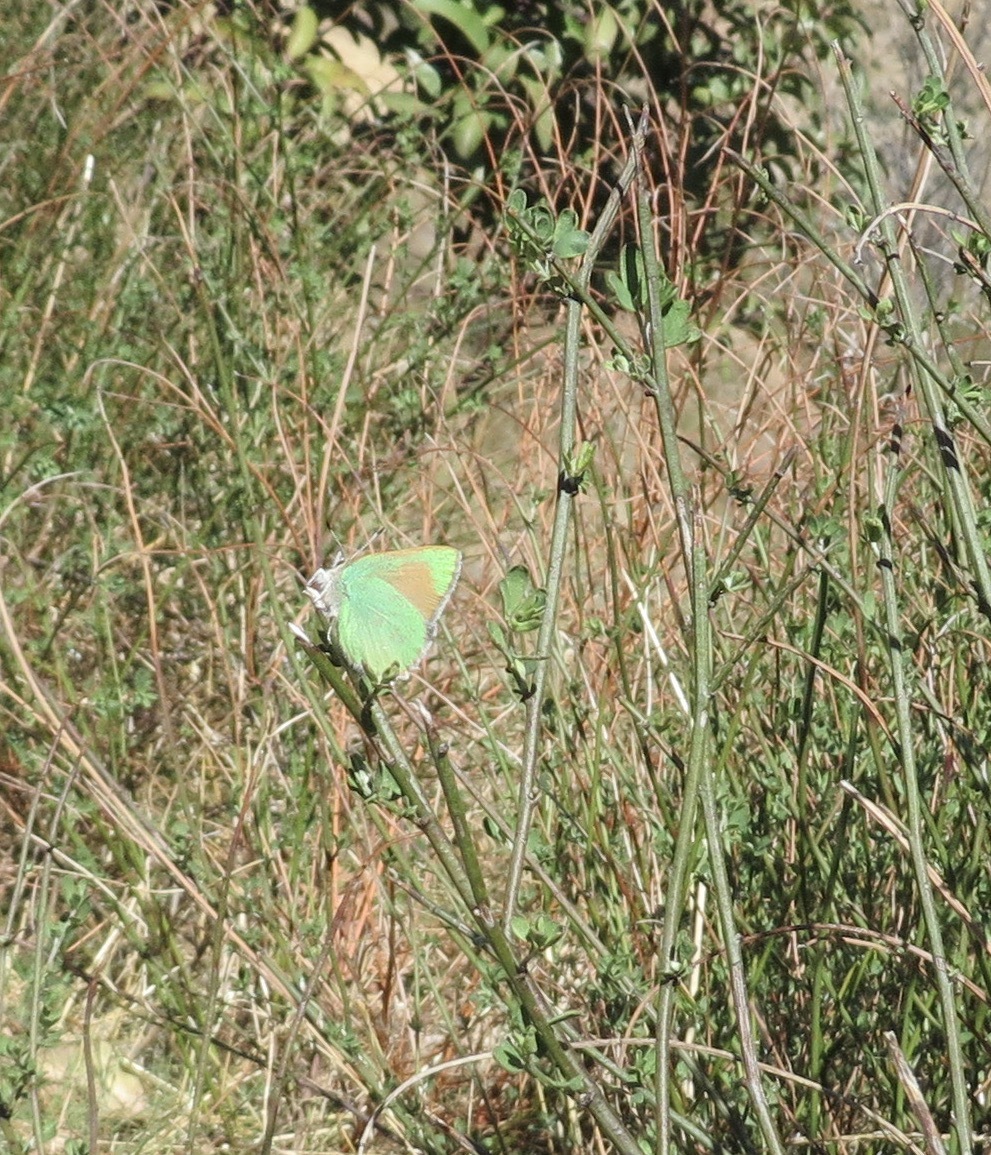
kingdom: Animalia
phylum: Arthropoda
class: Insecta
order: Lepidoptera
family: Lycaenidae
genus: Callophrys
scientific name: Callophrys dumetorum
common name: Bramble hairstreak
